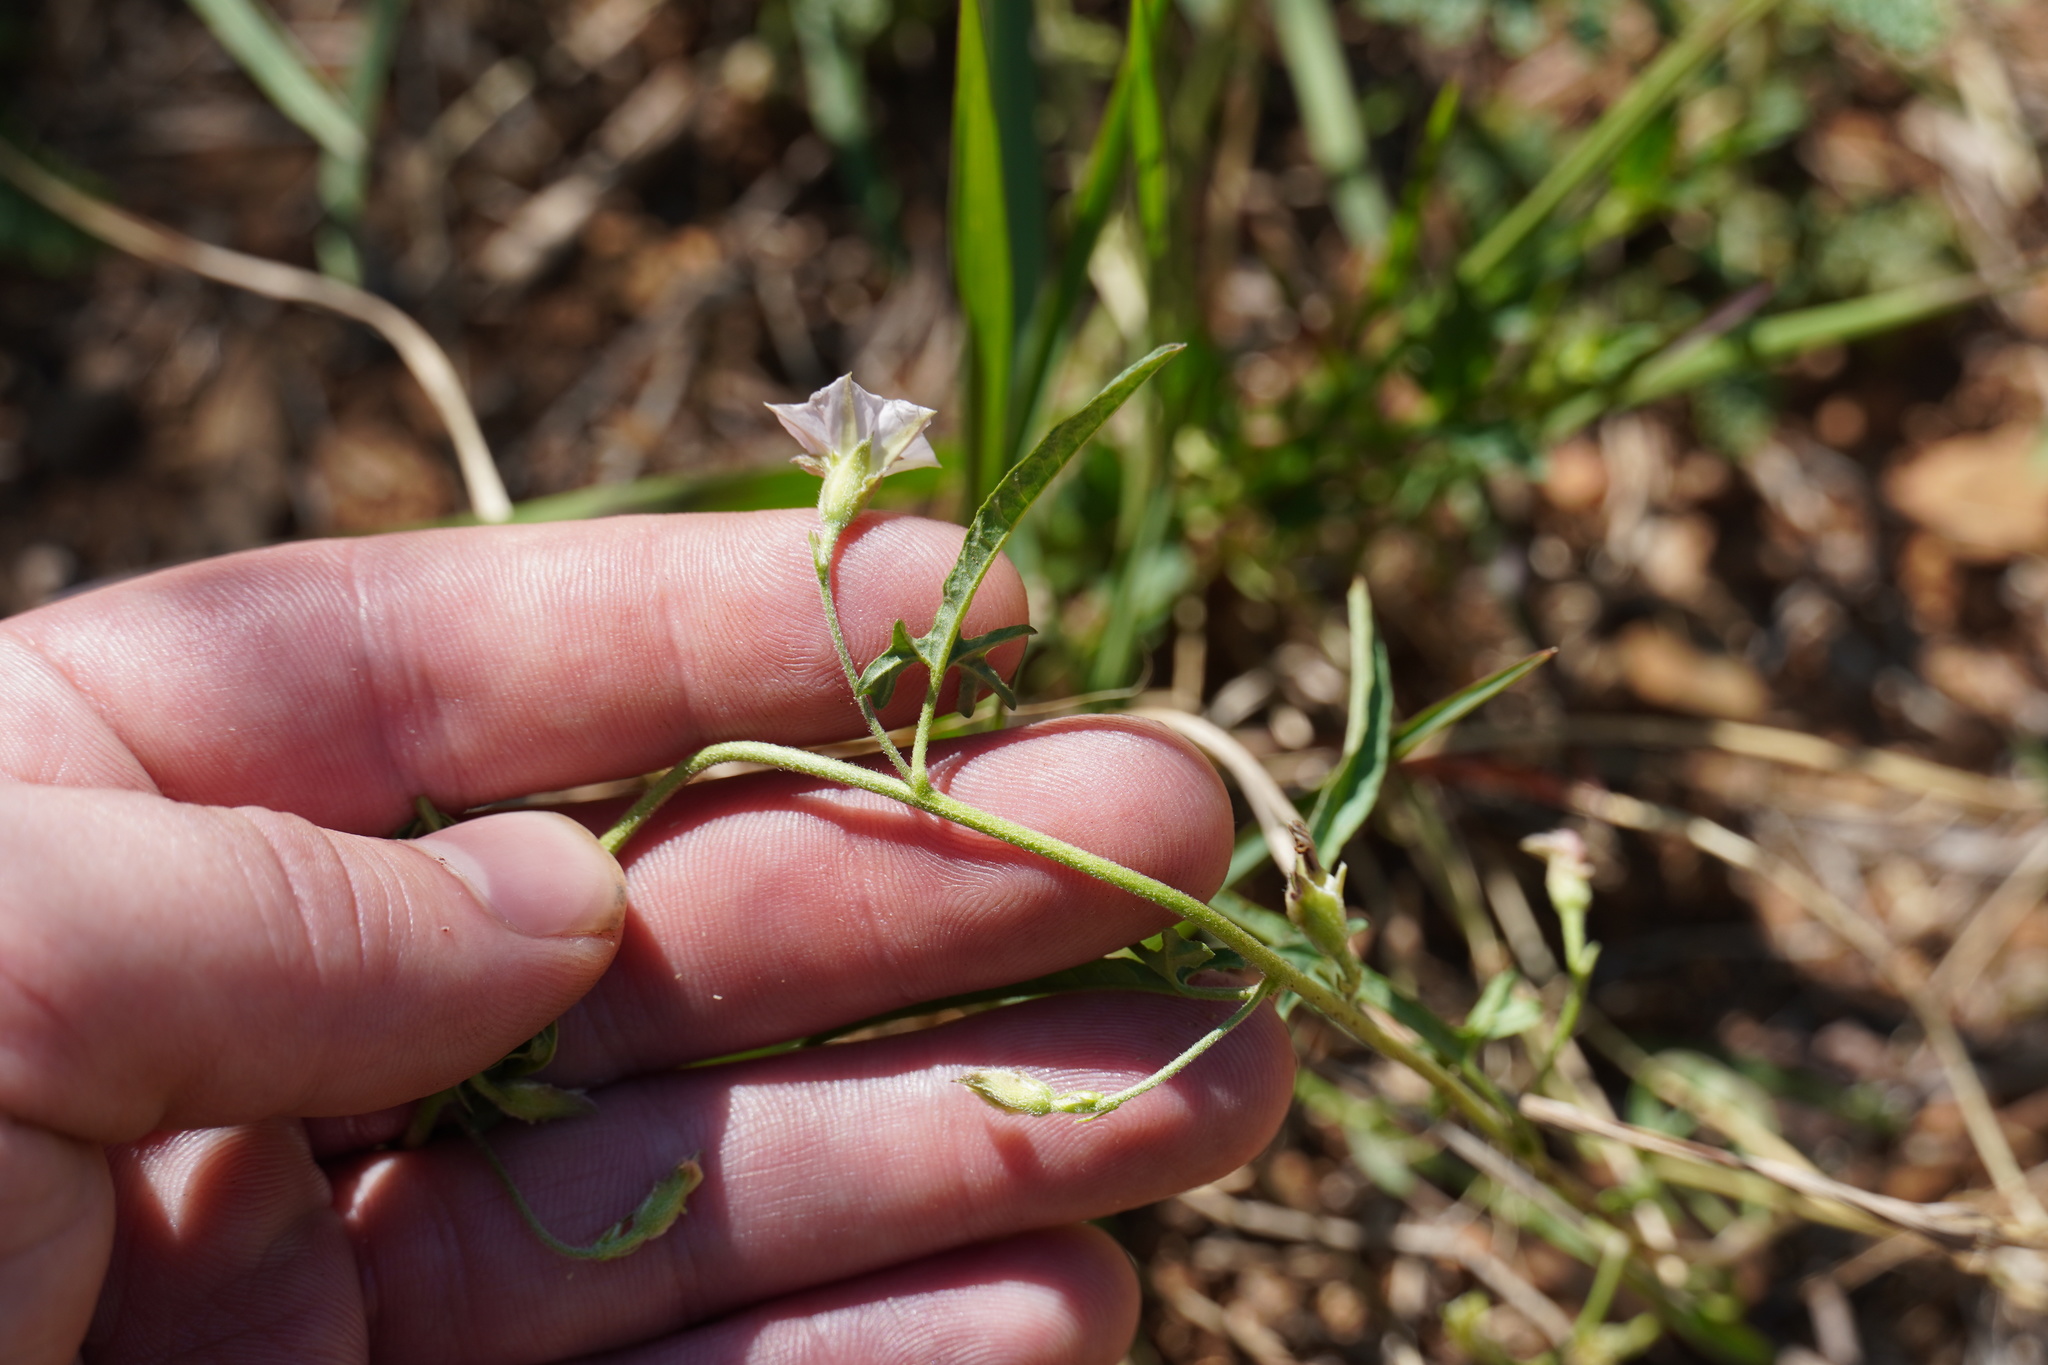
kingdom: Plantae
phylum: Tracheophyta
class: Magnoliopsida
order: Solanales
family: Convolvulaceae
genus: Convolvulus
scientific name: Convolvulus sagittatus
